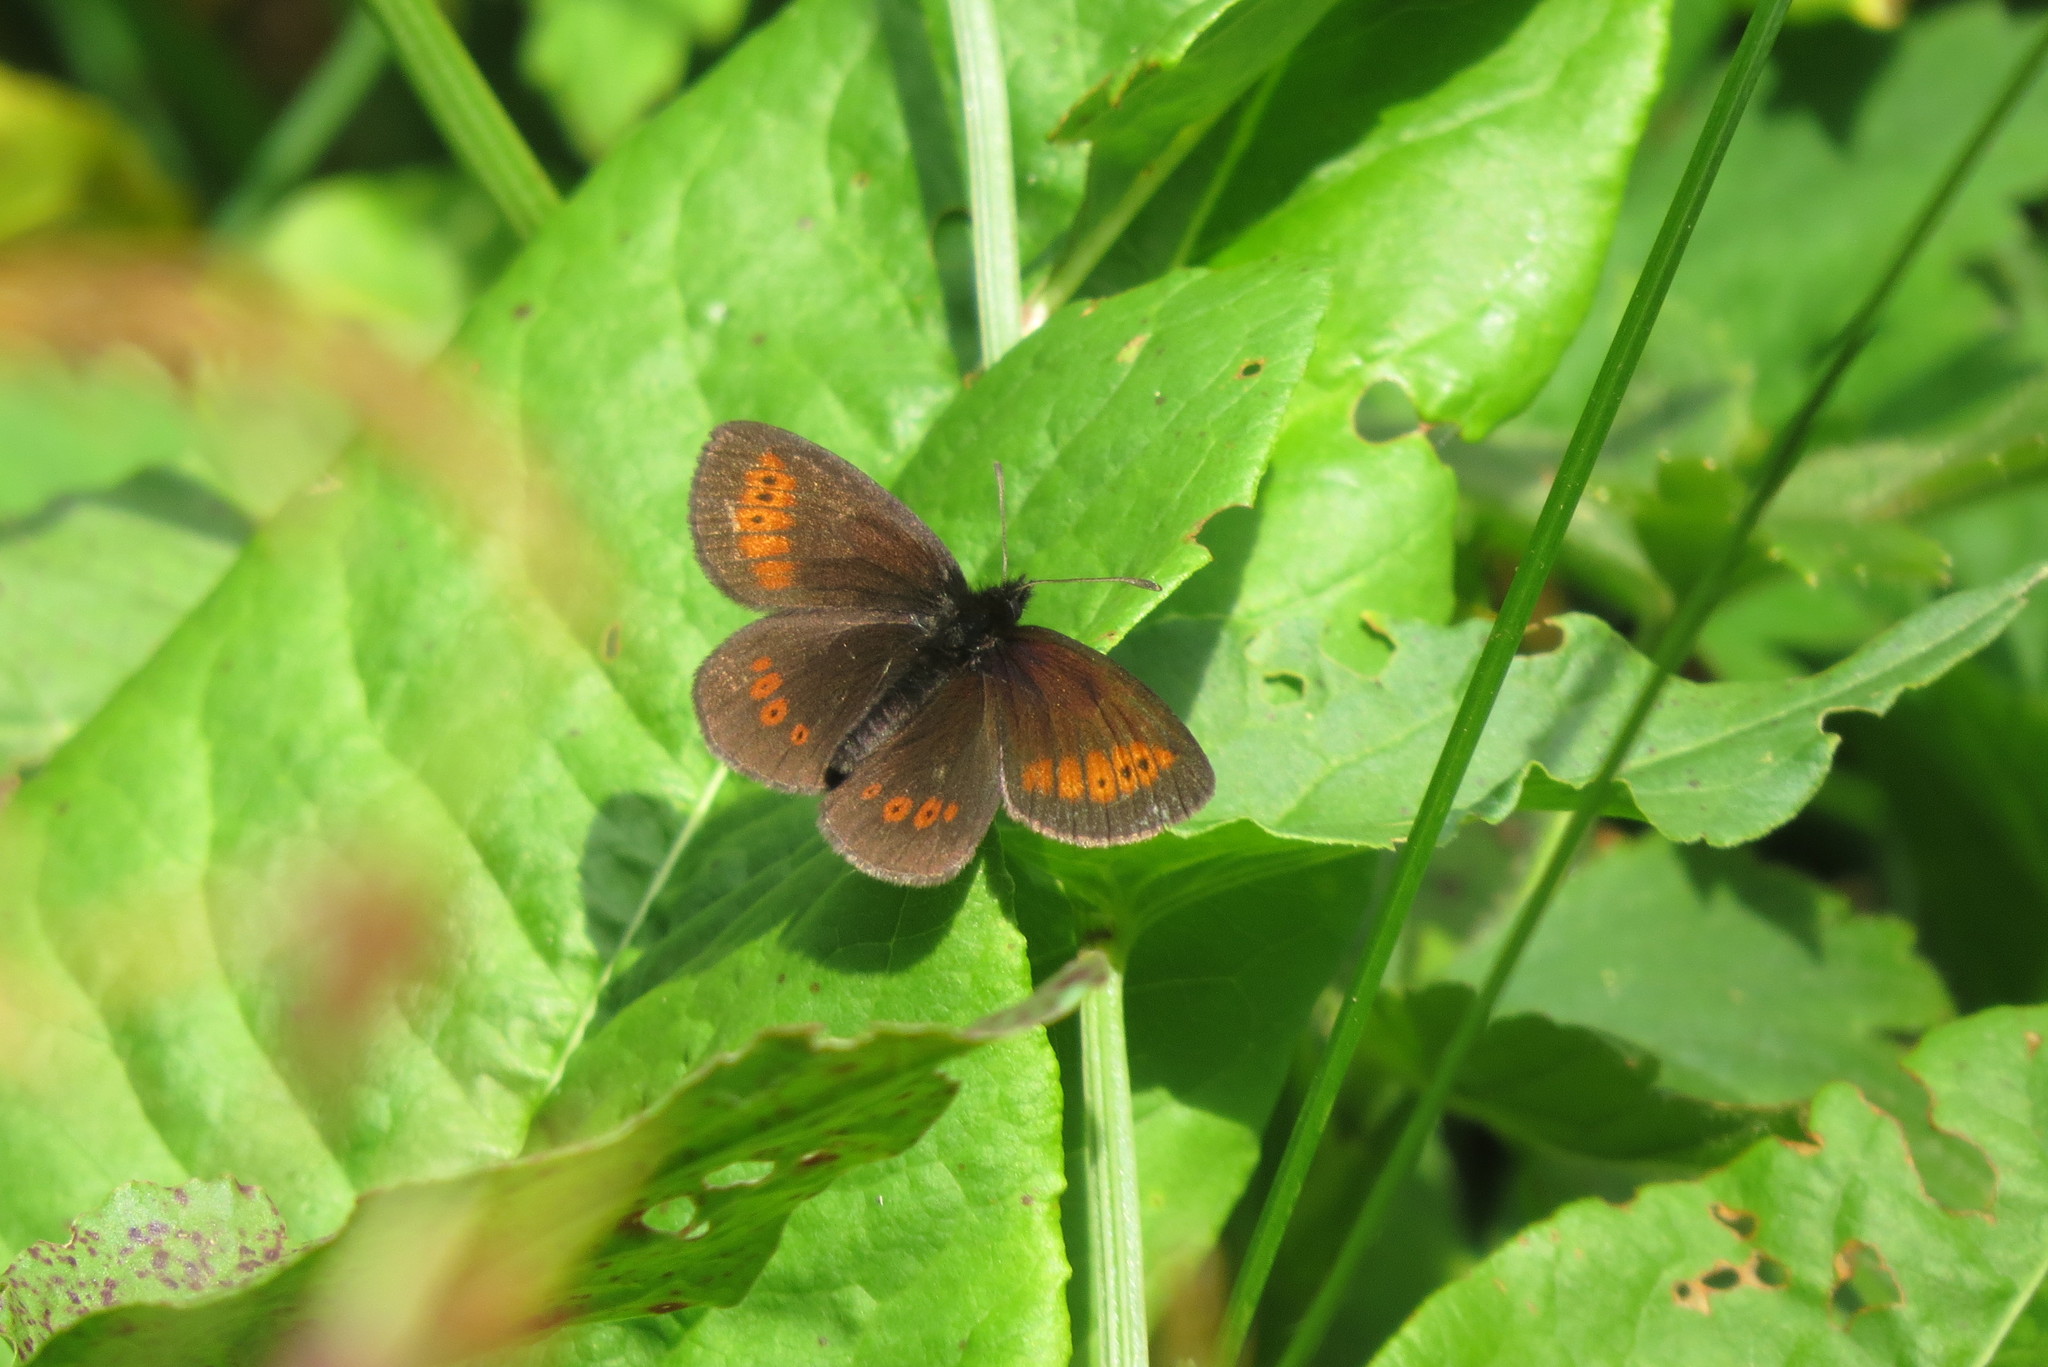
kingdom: Animalia
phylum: Arthropoda
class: Insecta
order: Lepidoptera
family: Nymphalidae
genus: Erebia
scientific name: Erebia melampus
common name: Lesser mountain ringlet
